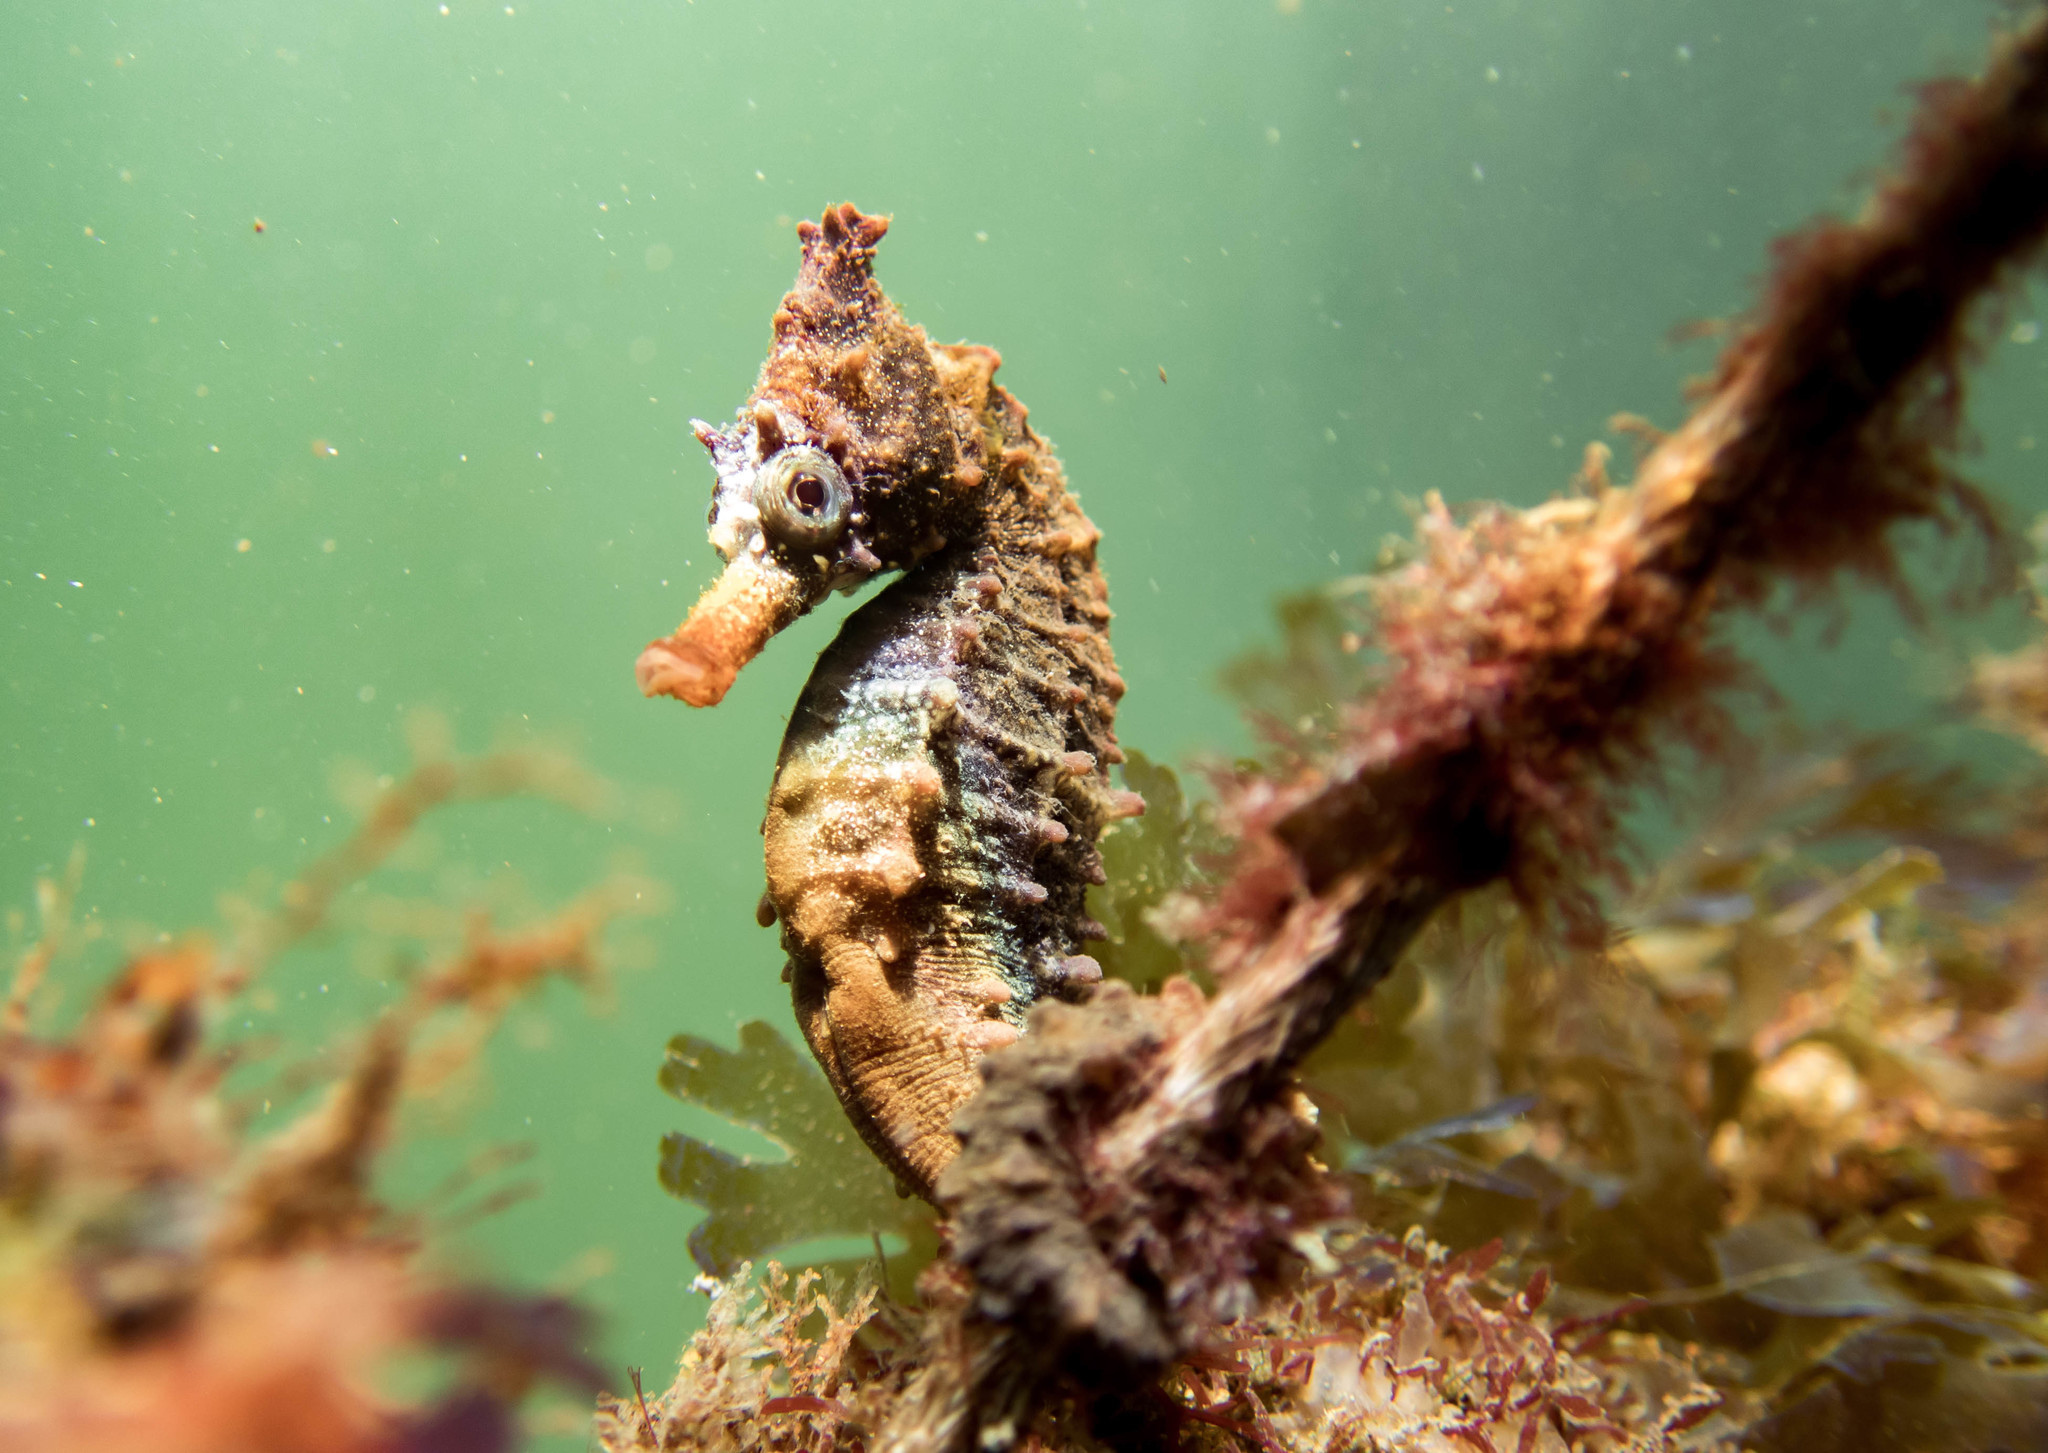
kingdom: Animalia
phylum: Chordata
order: Syngnathiformes
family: Syngnathidae
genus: Hippocampus
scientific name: Hippocampus whitei
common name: New holland seahorse
